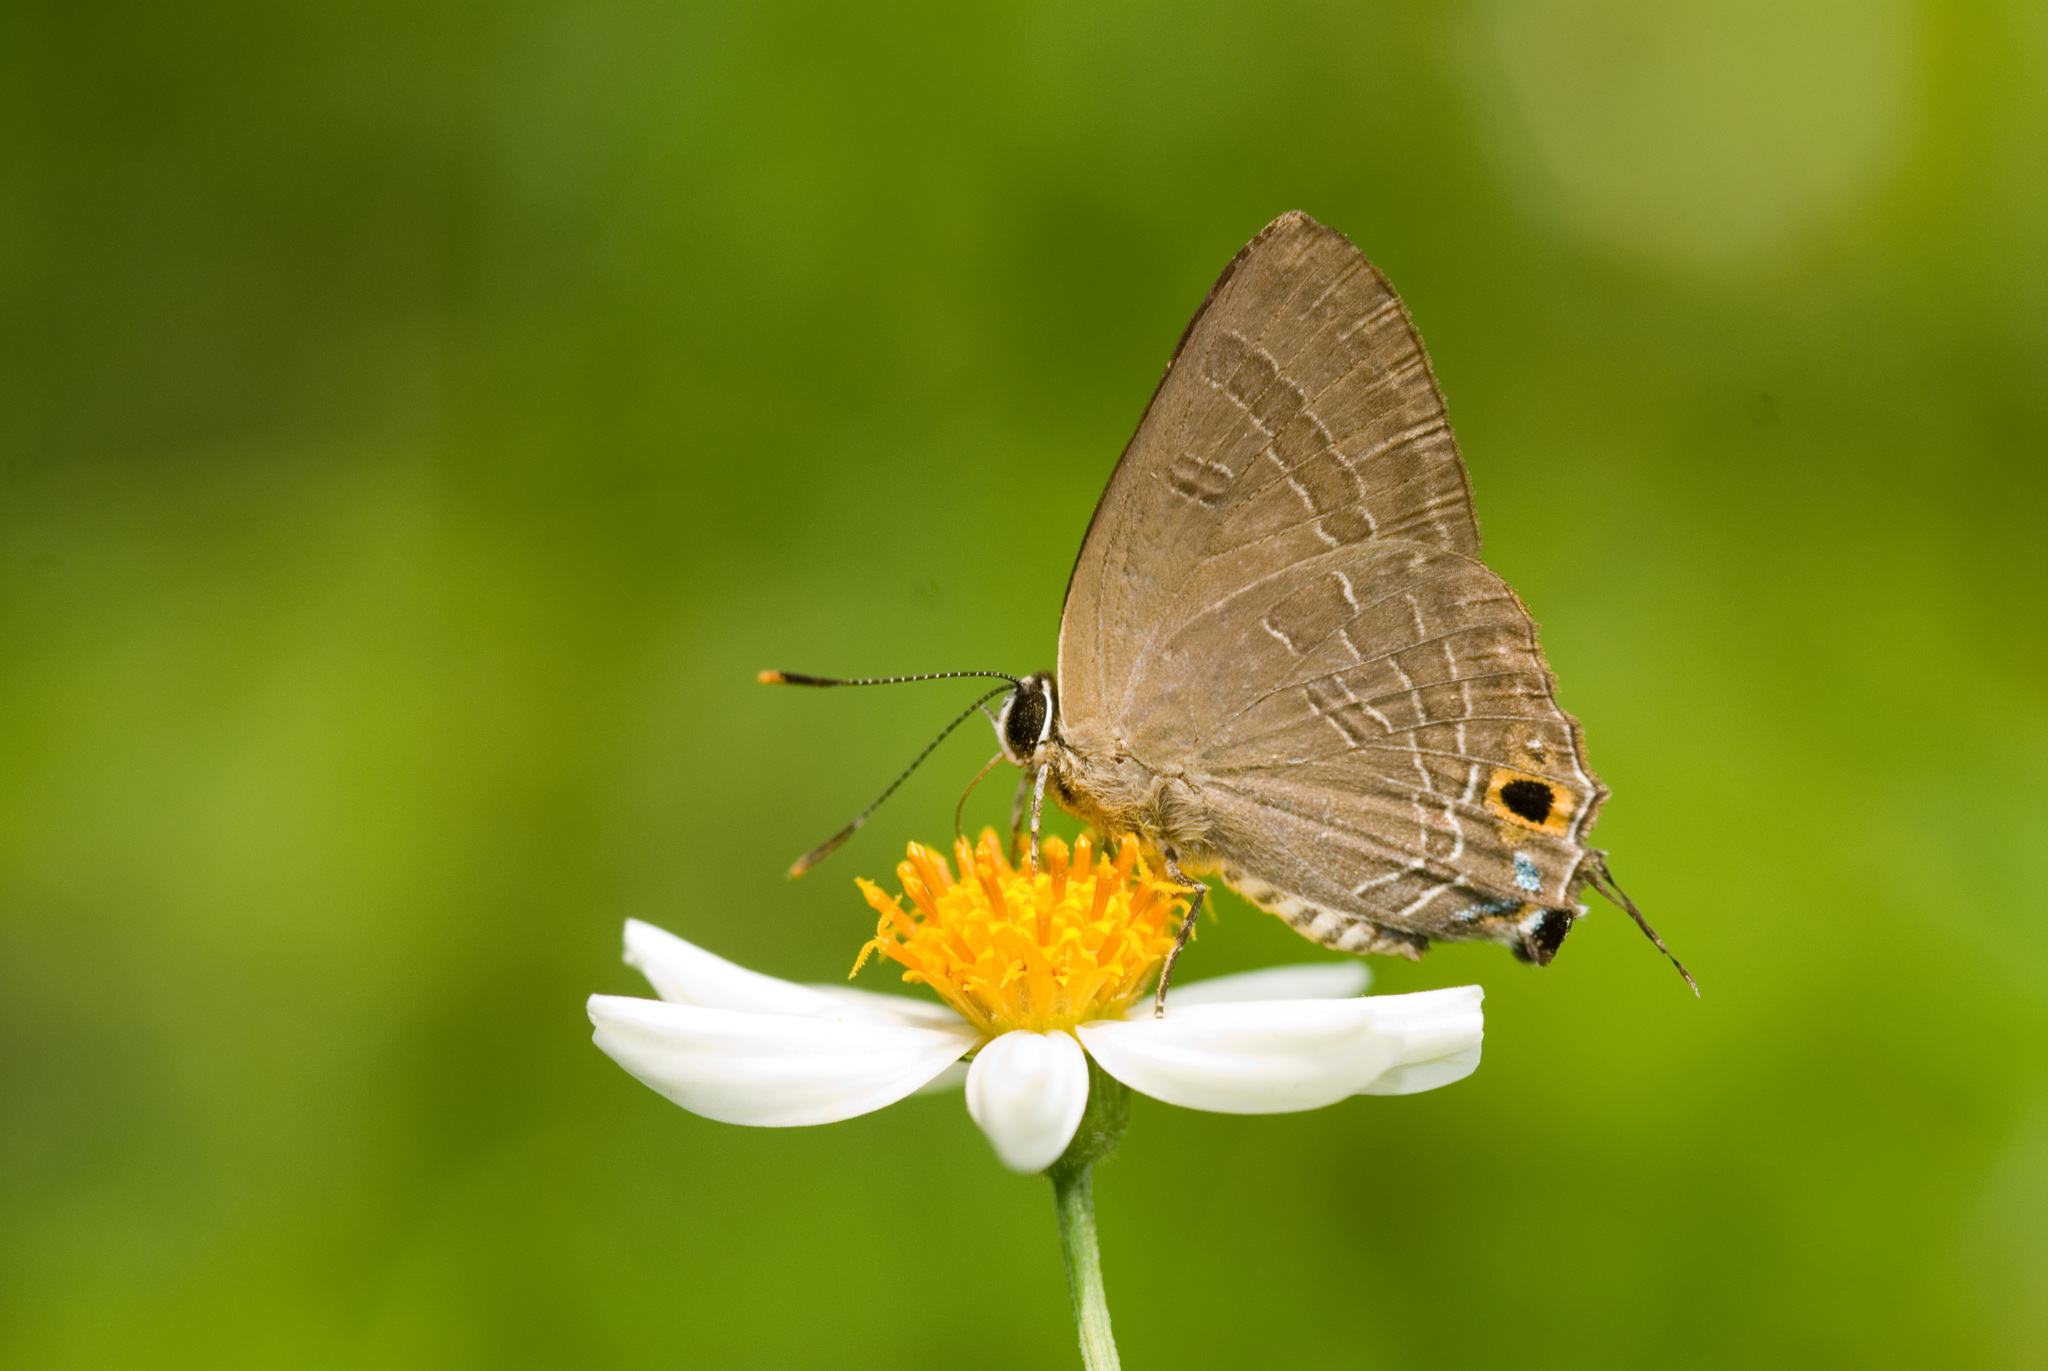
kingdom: Animalia
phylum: Arthropoda
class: Insecta
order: Lepidoptera
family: Lycaenidae
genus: Deudorix
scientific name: Deudorix epijarbas
